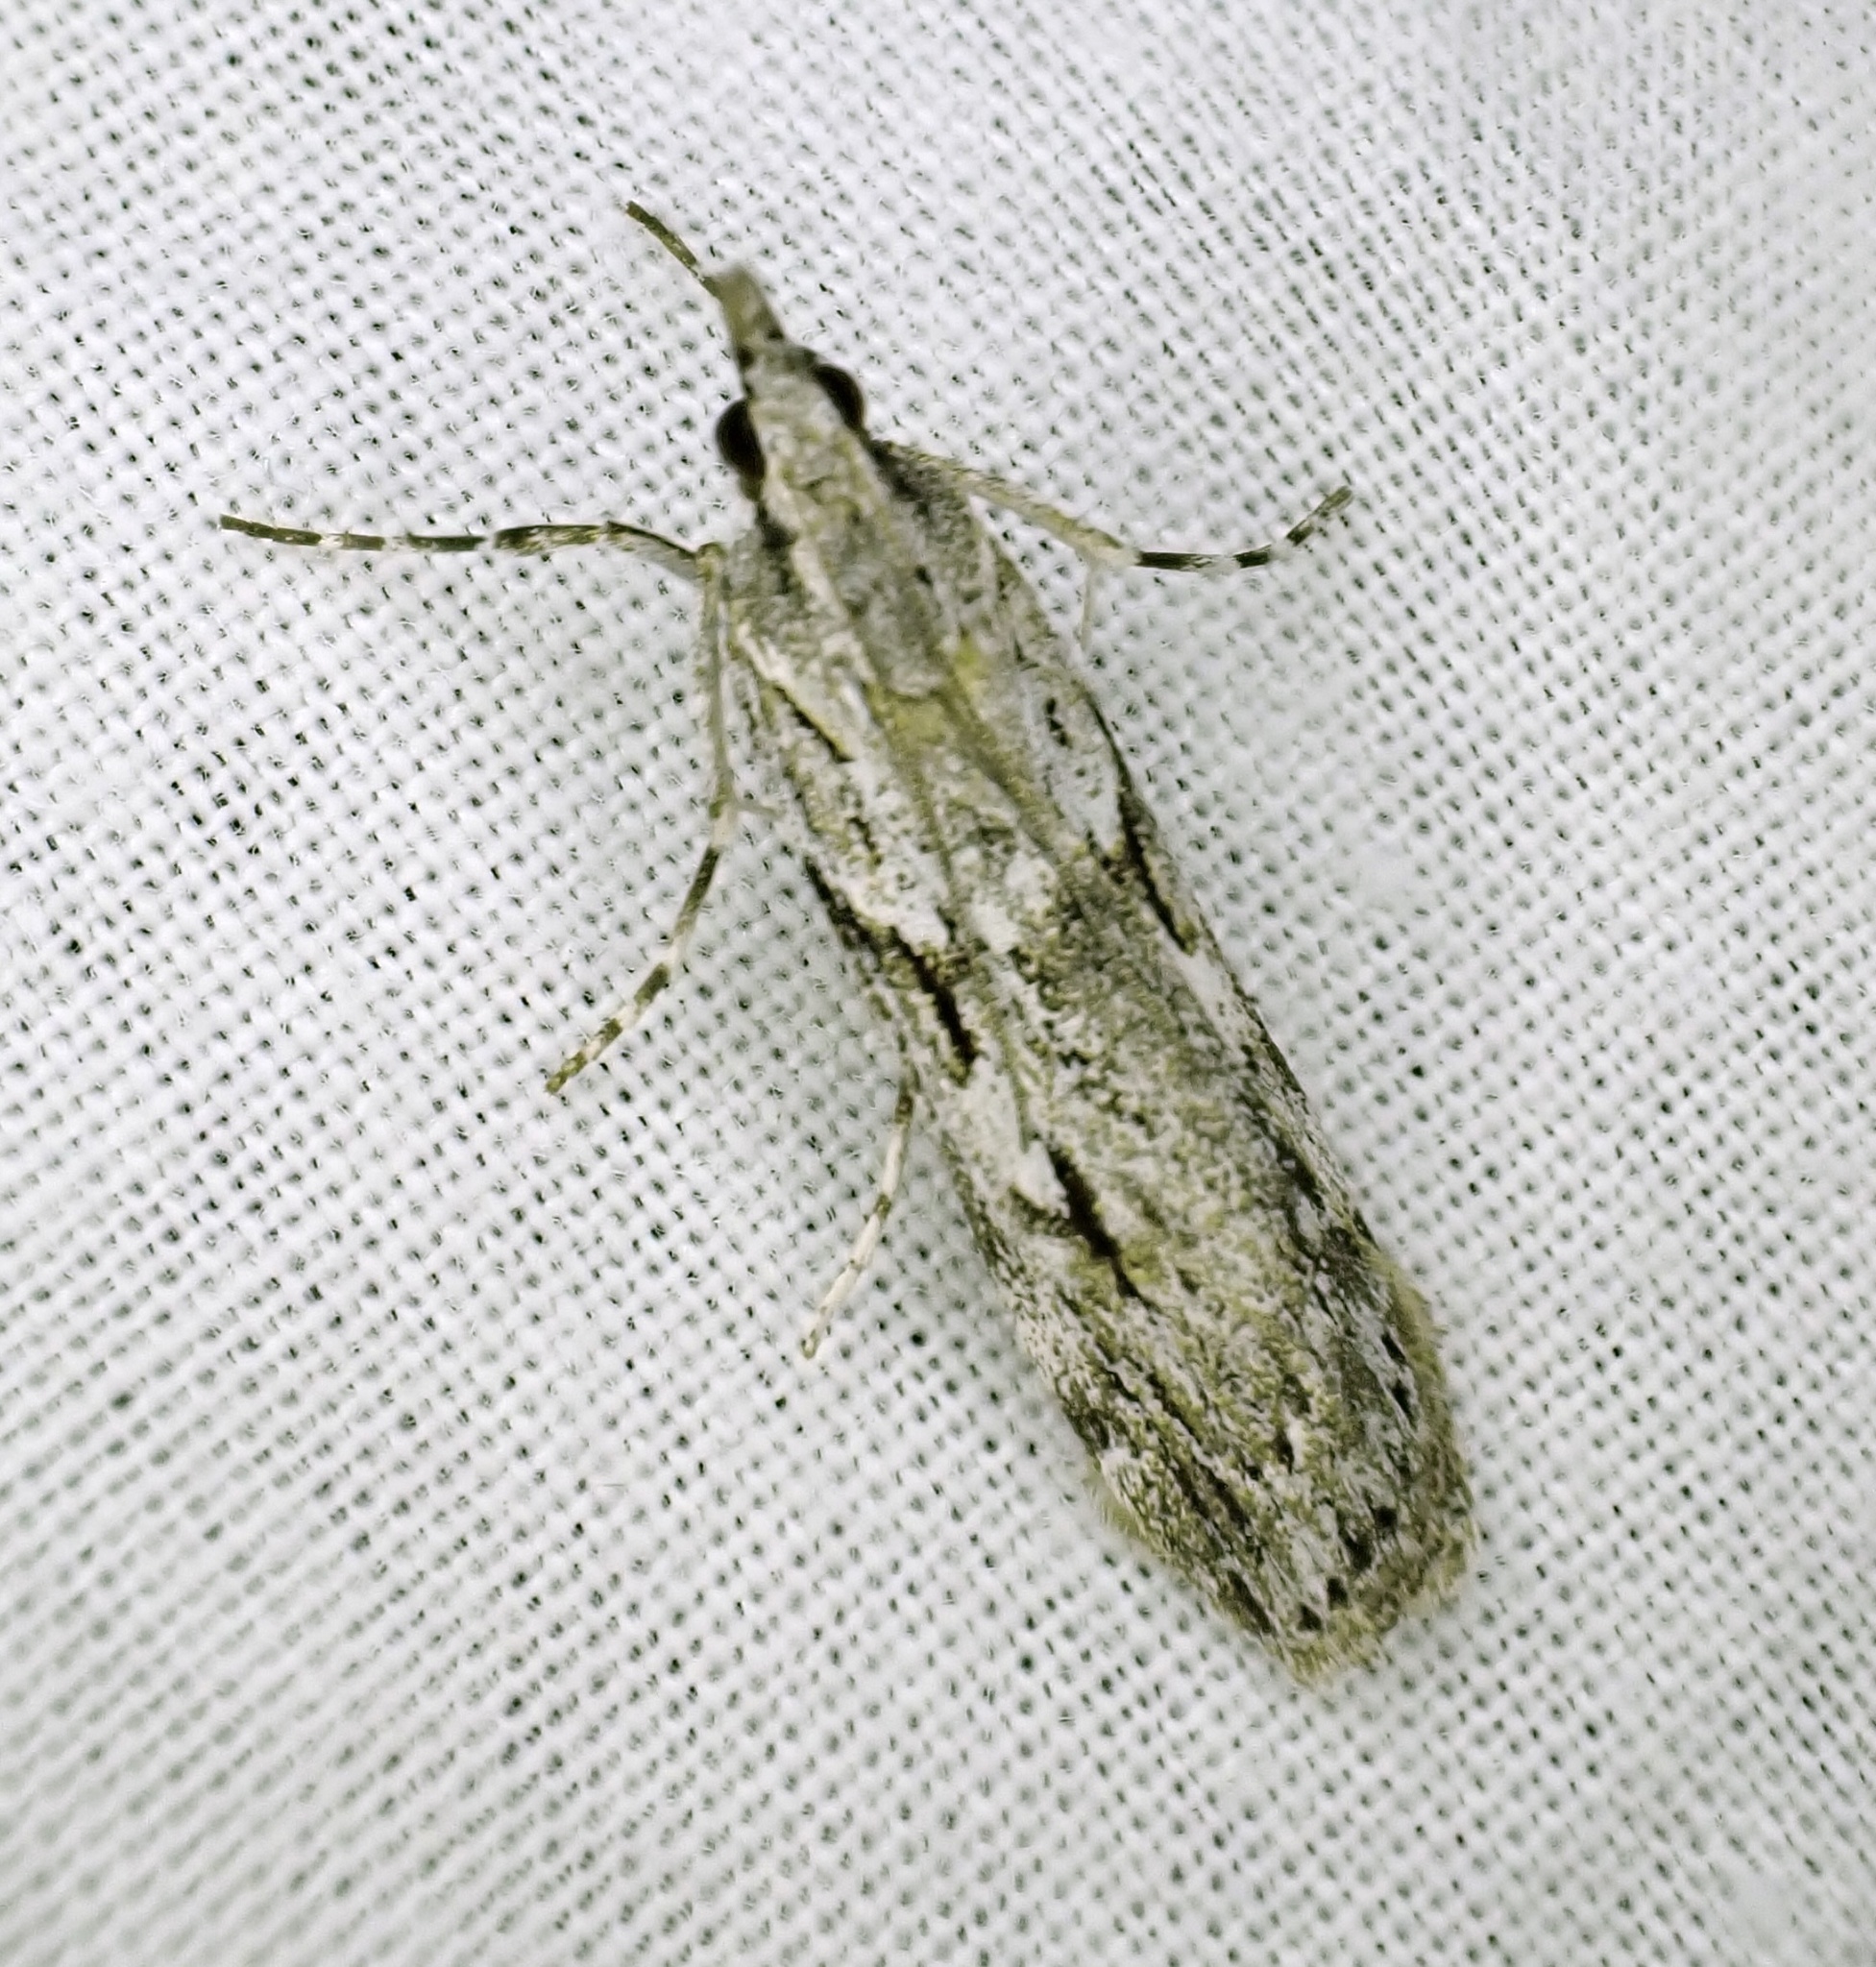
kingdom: Animalia
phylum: Arthropoda
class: Insecta
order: Lepidoptera
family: Crambidae
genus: Scoparia
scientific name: Scoparia halopis
